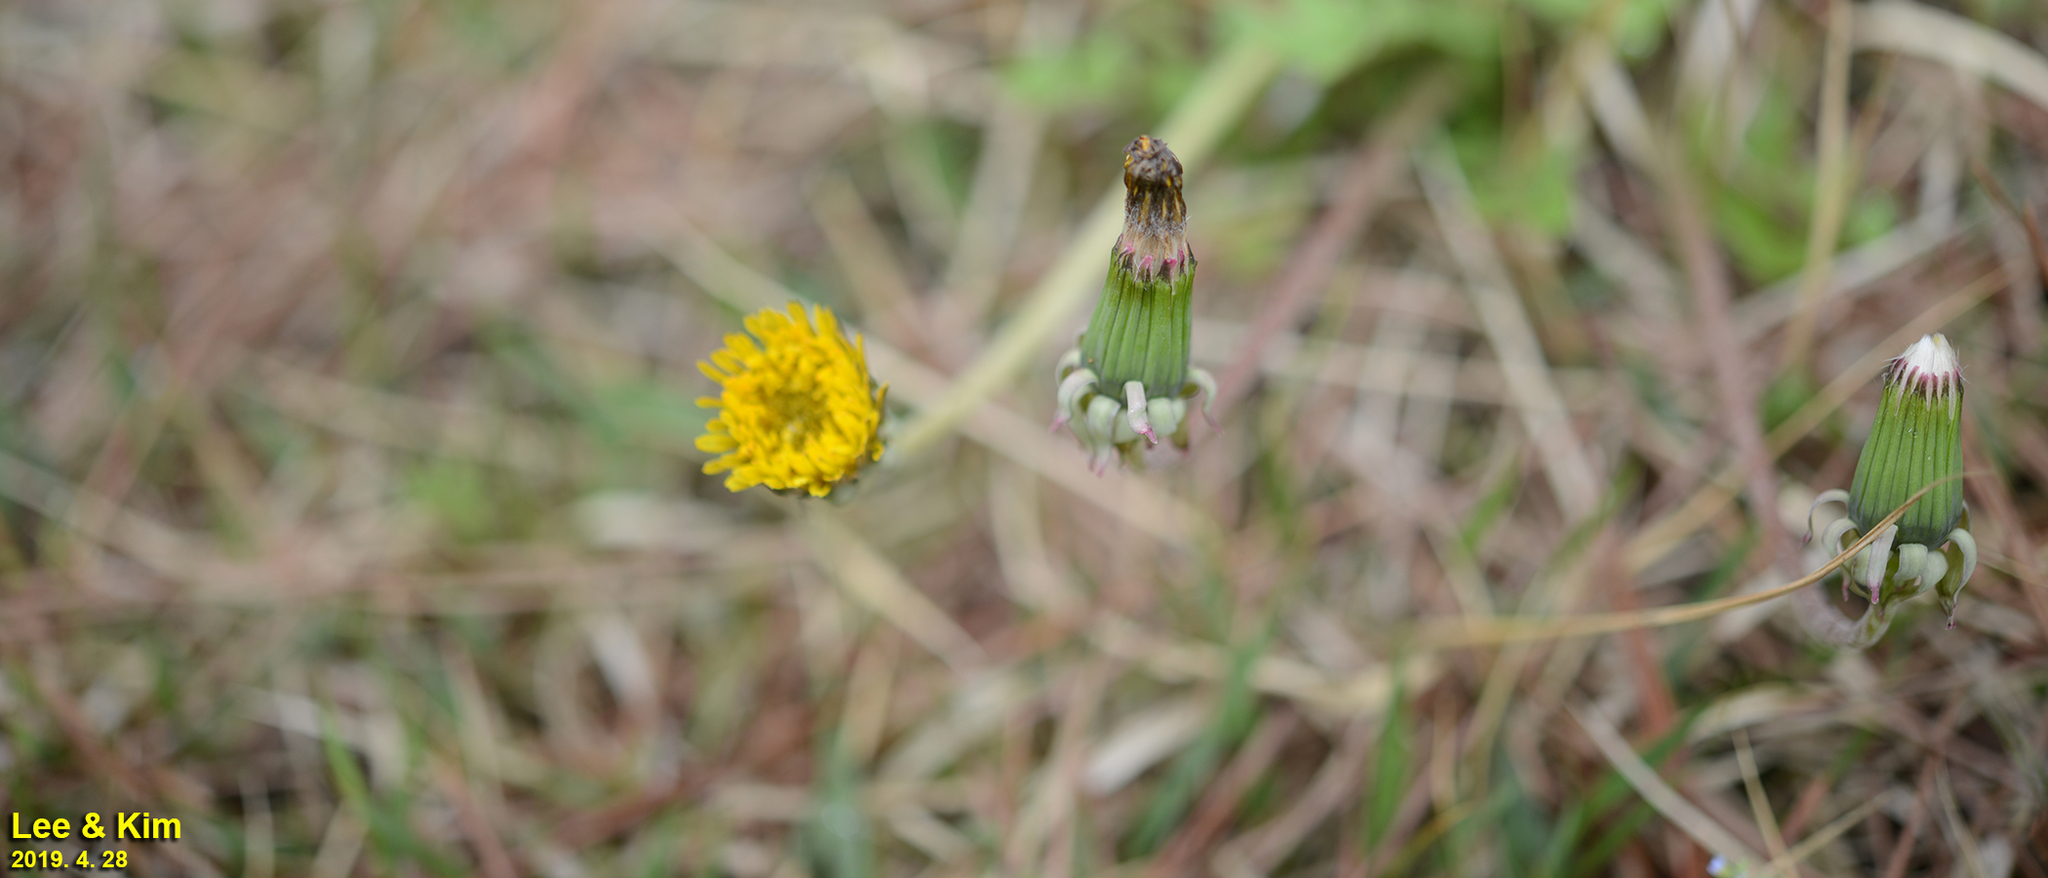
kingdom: Plantae
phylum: Tracheophyta
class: Magnoliopsida
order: Asterales
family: Asteraceae
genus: Taraxacum
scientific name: Taraxacum officinale
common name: Common dandelion
